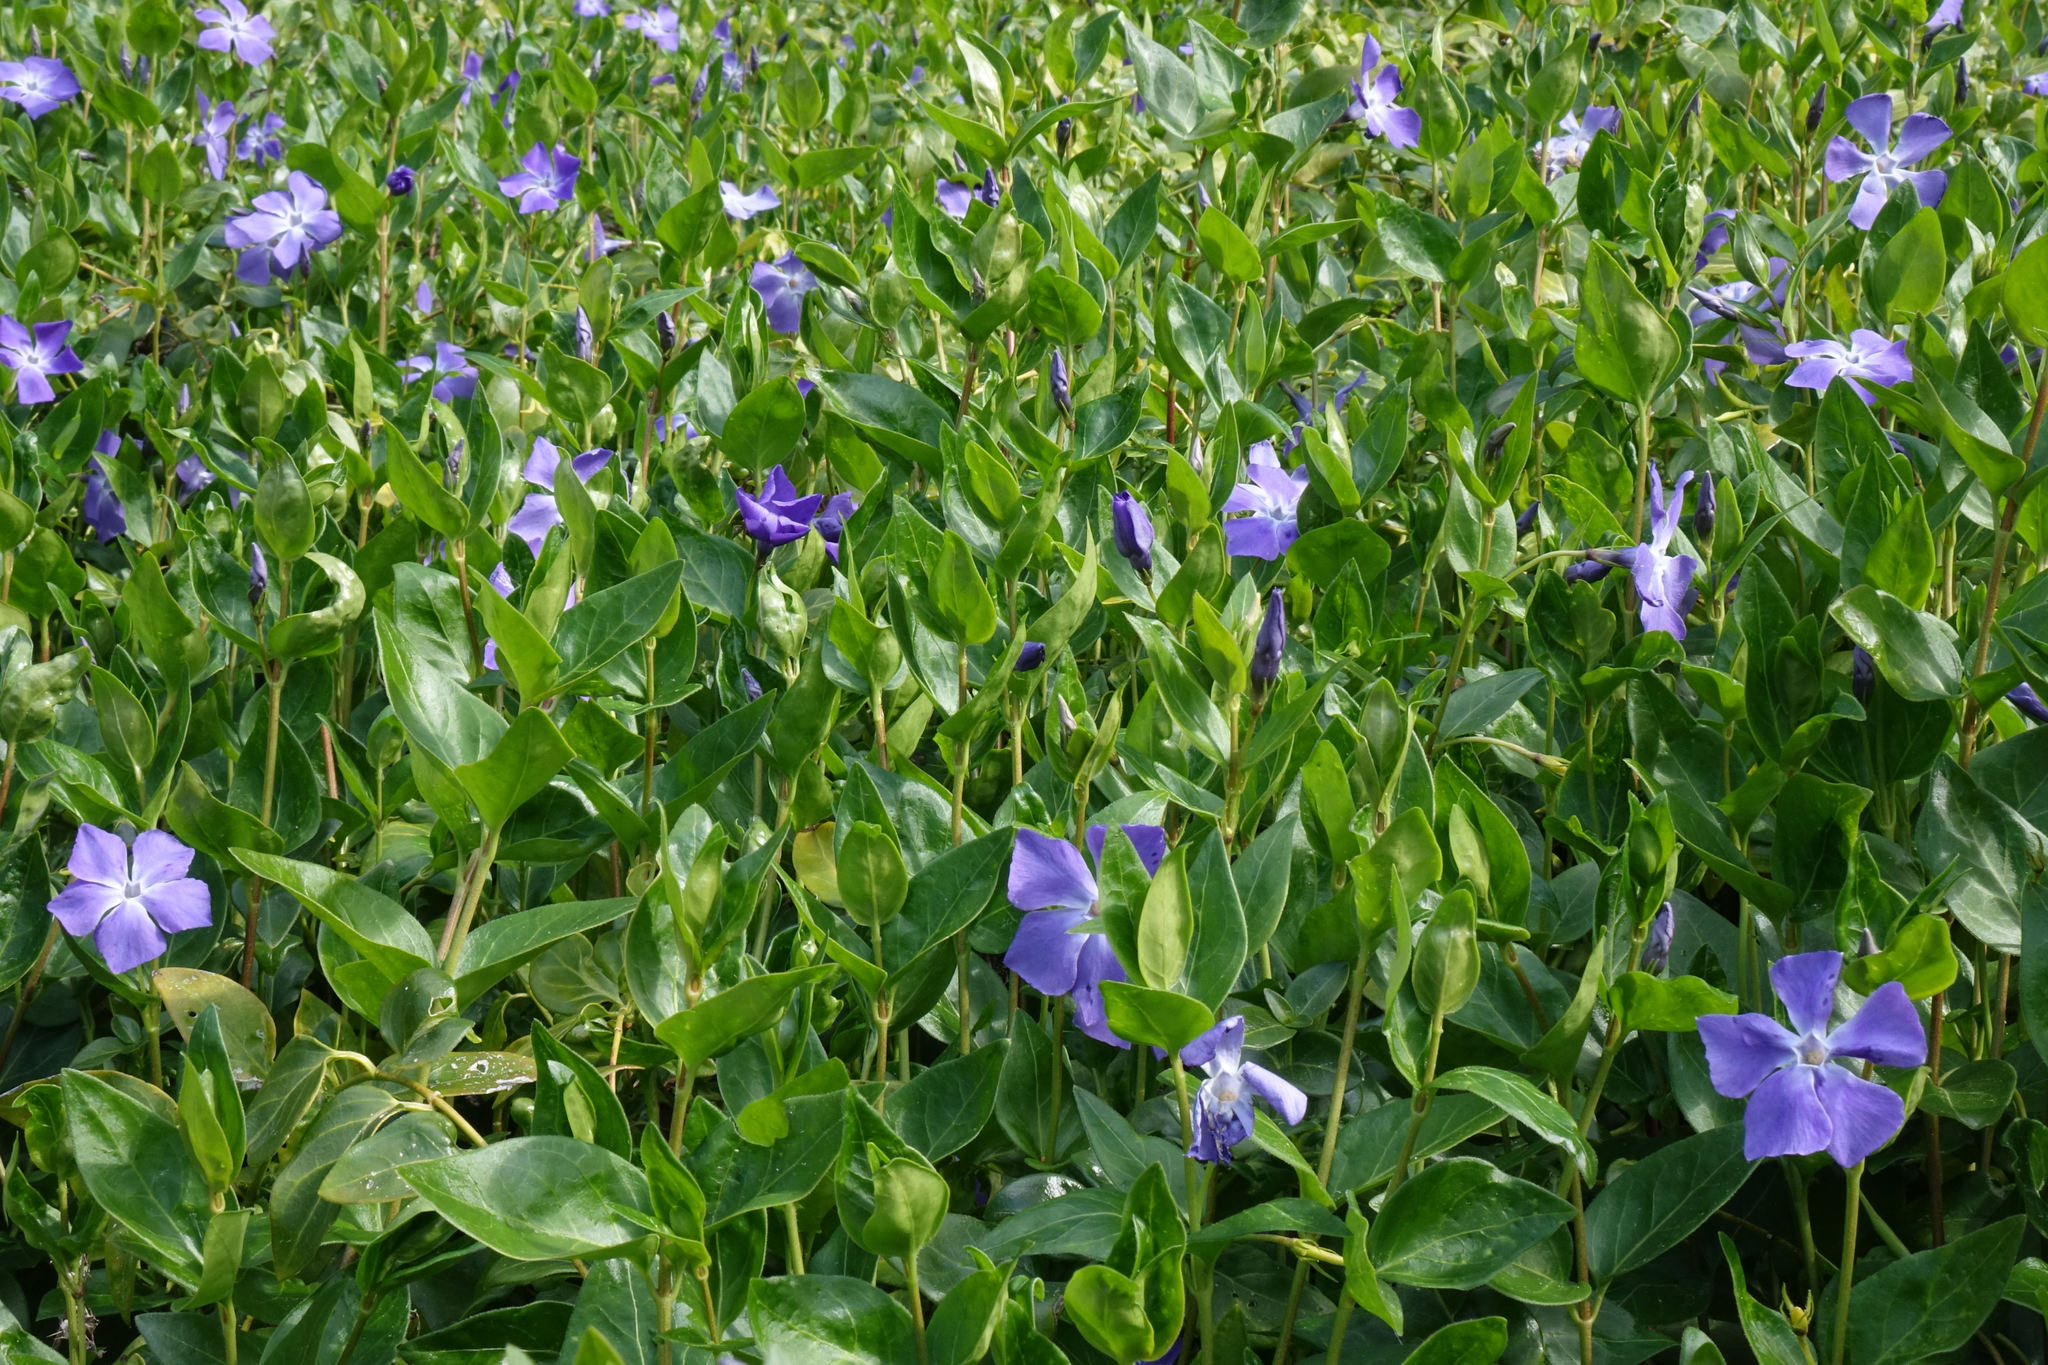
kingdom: Plantae
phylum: Tracheophyta
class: Magnoliopsida
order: Gentianales
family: Apocynaceae
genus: Vinca
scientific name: Vinca major
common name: Greater periwinkle
